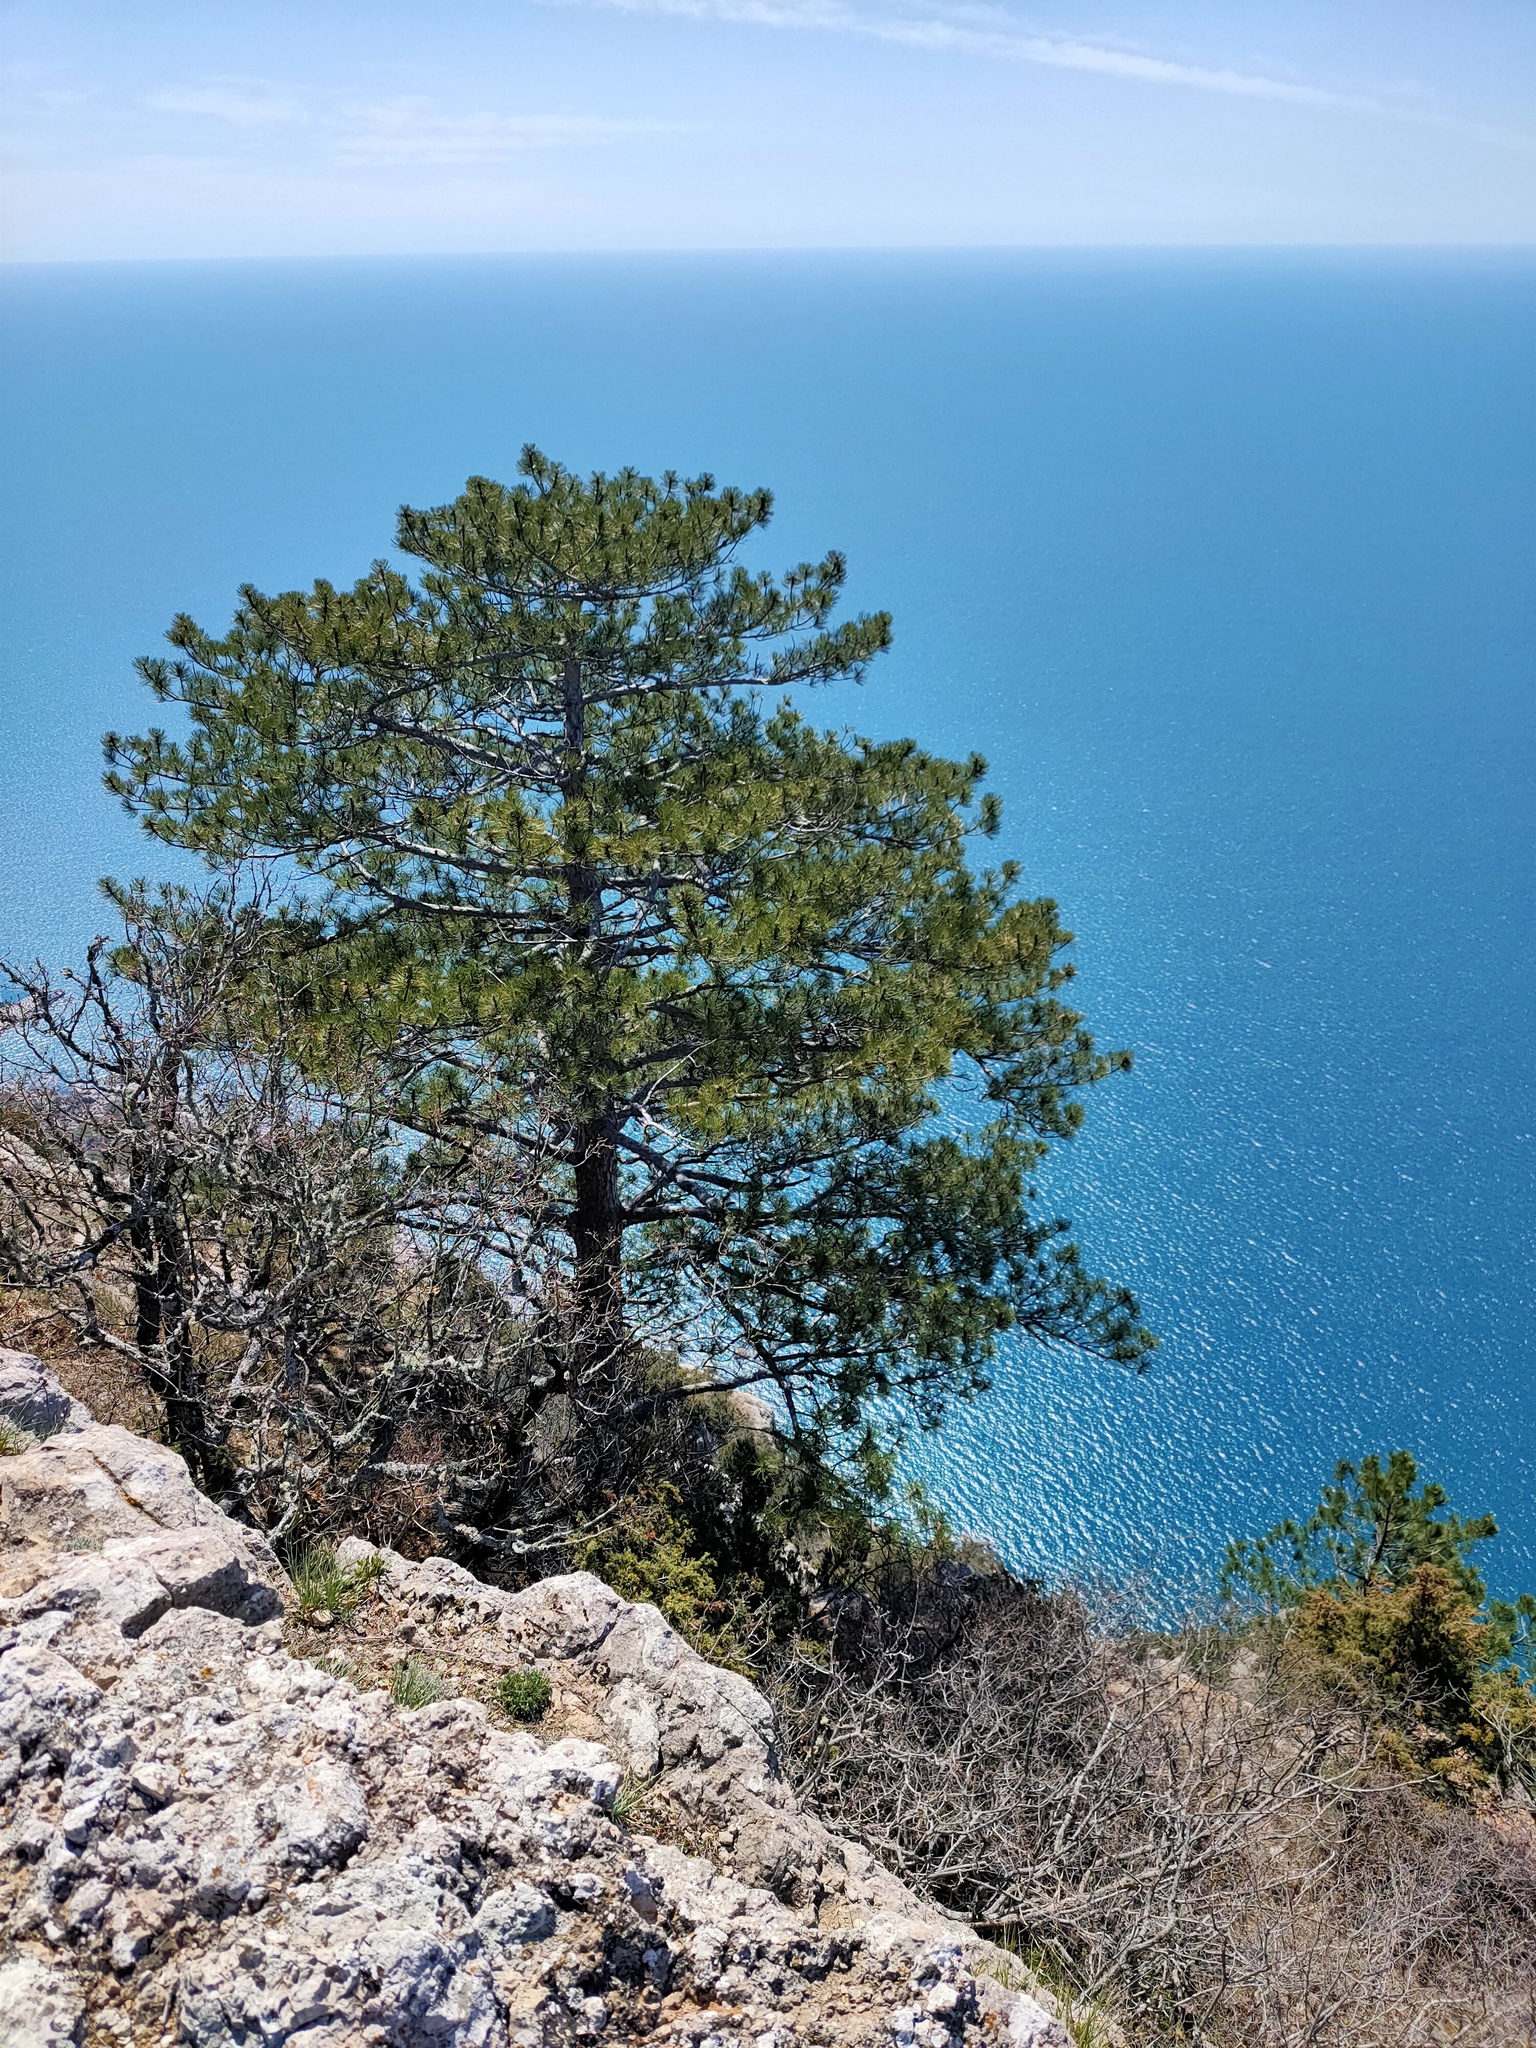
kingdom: Plantae
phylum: Tracheophyta
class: Pinopsida
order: Pinales
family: Pinaceae
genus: Pinus
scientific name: Pinus nigra
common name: Austrian pine
